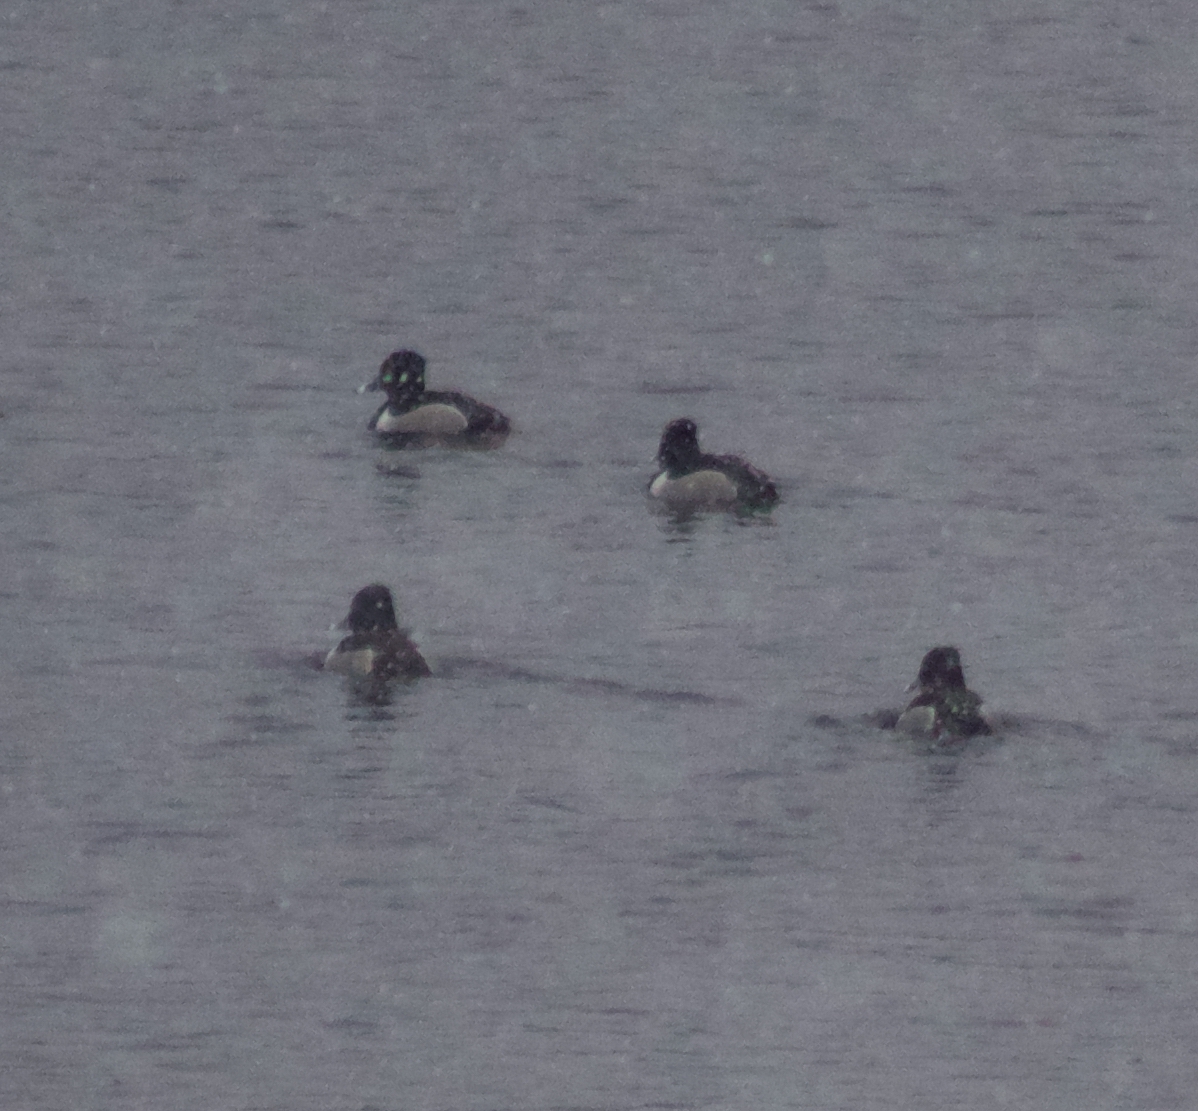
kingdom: Animalia
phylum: Chordata
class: Aves
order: Anseriformes
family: Anatidae
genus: Aythya
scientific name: Aythya collaris
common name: Ring-necked duck
